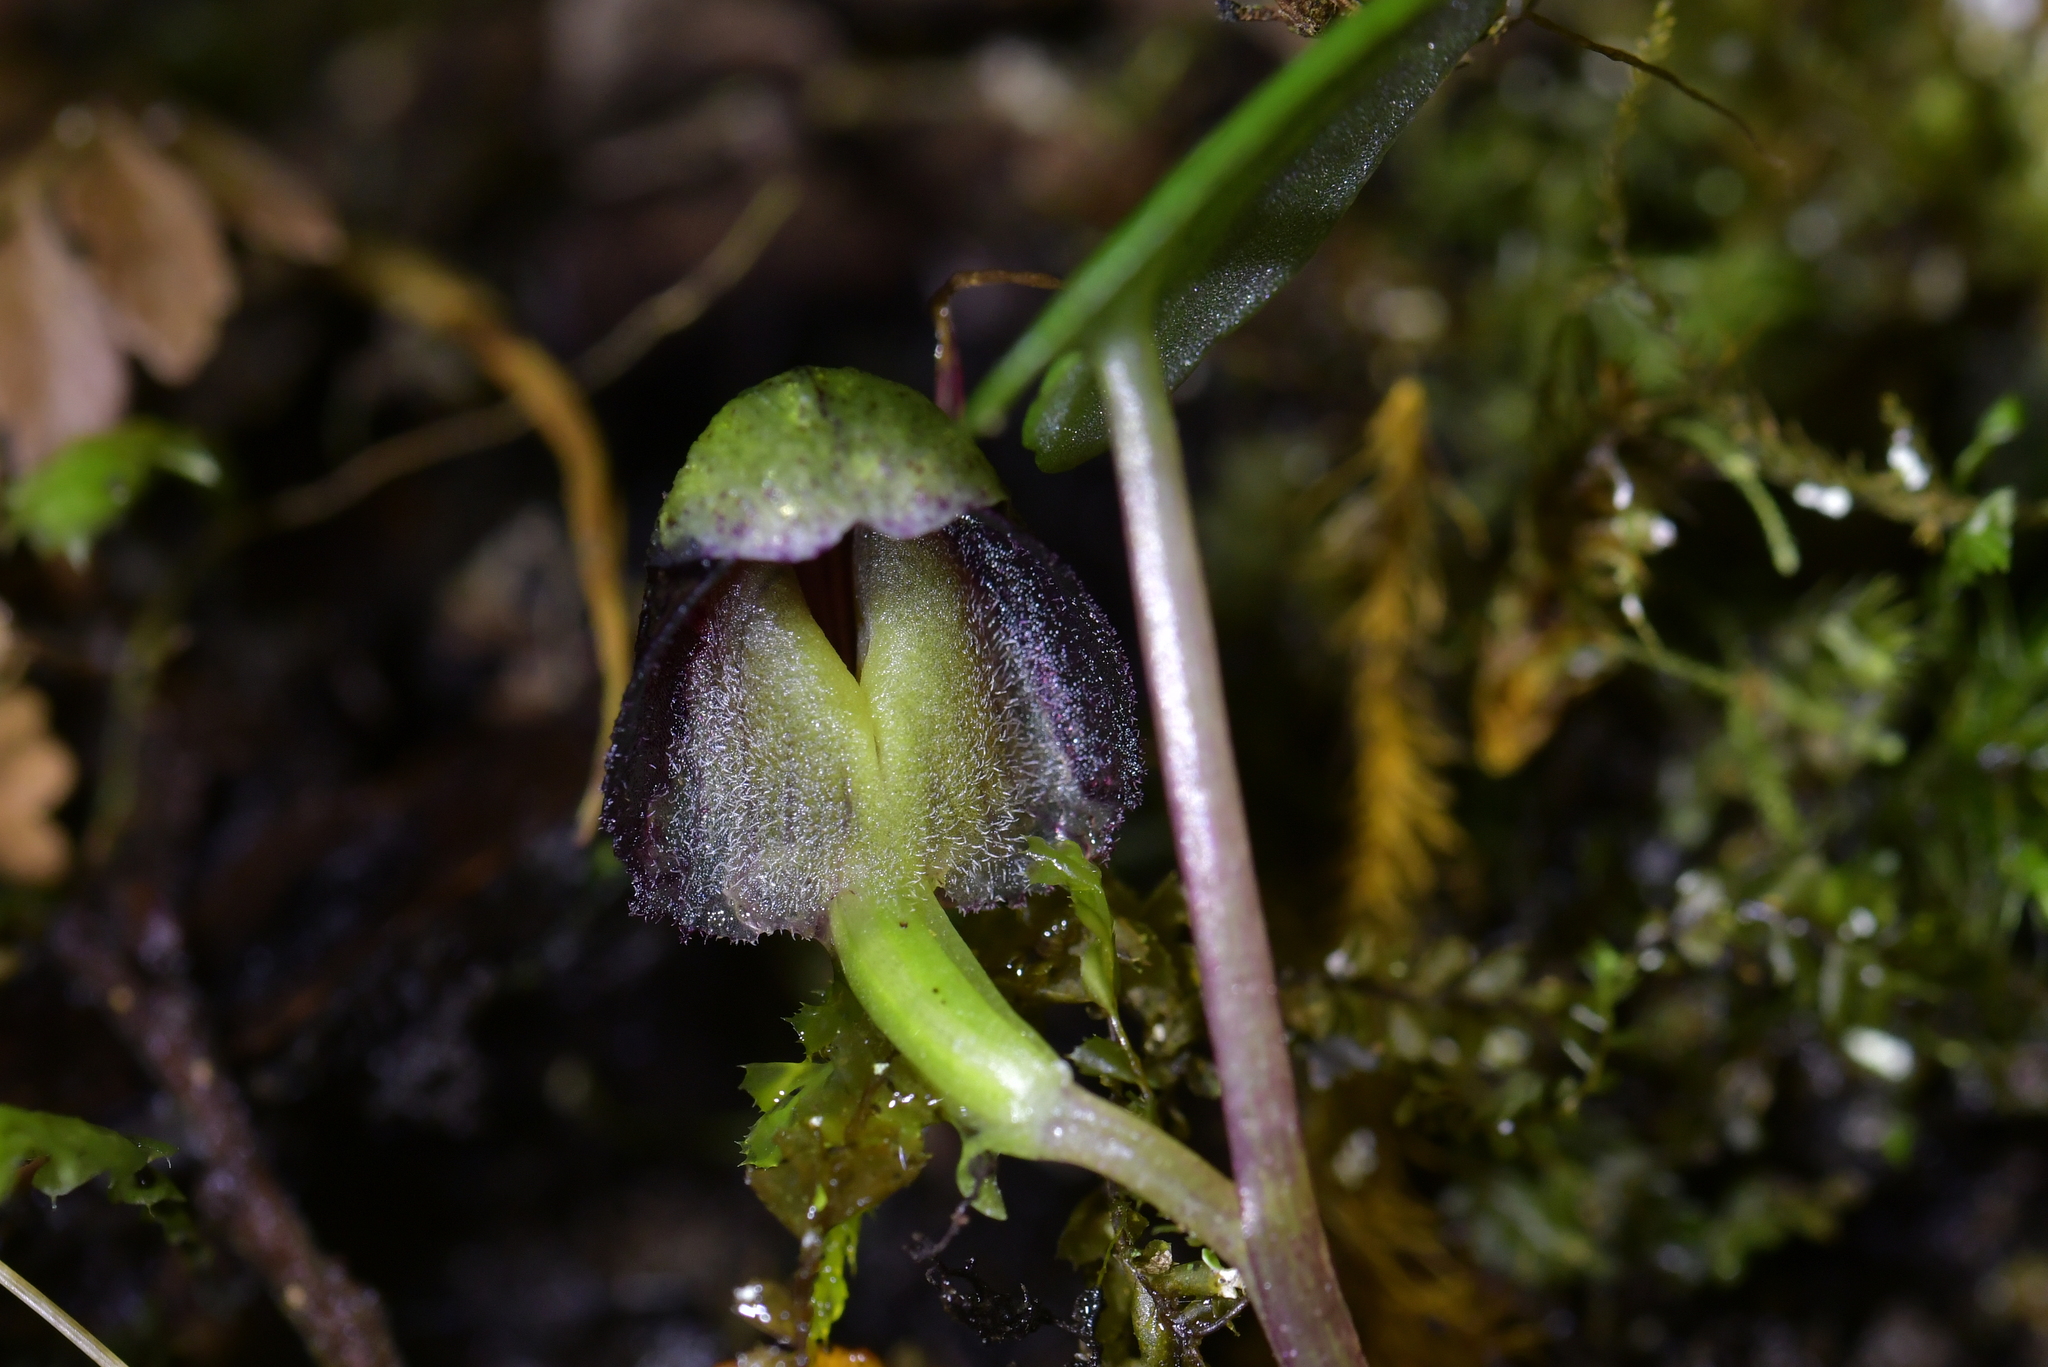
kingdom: Plantae
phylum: Tracheophyta
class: Liliopsida
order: Asparagales
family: Orchidaceae
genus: Corybas
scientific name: Corybas vitreus
